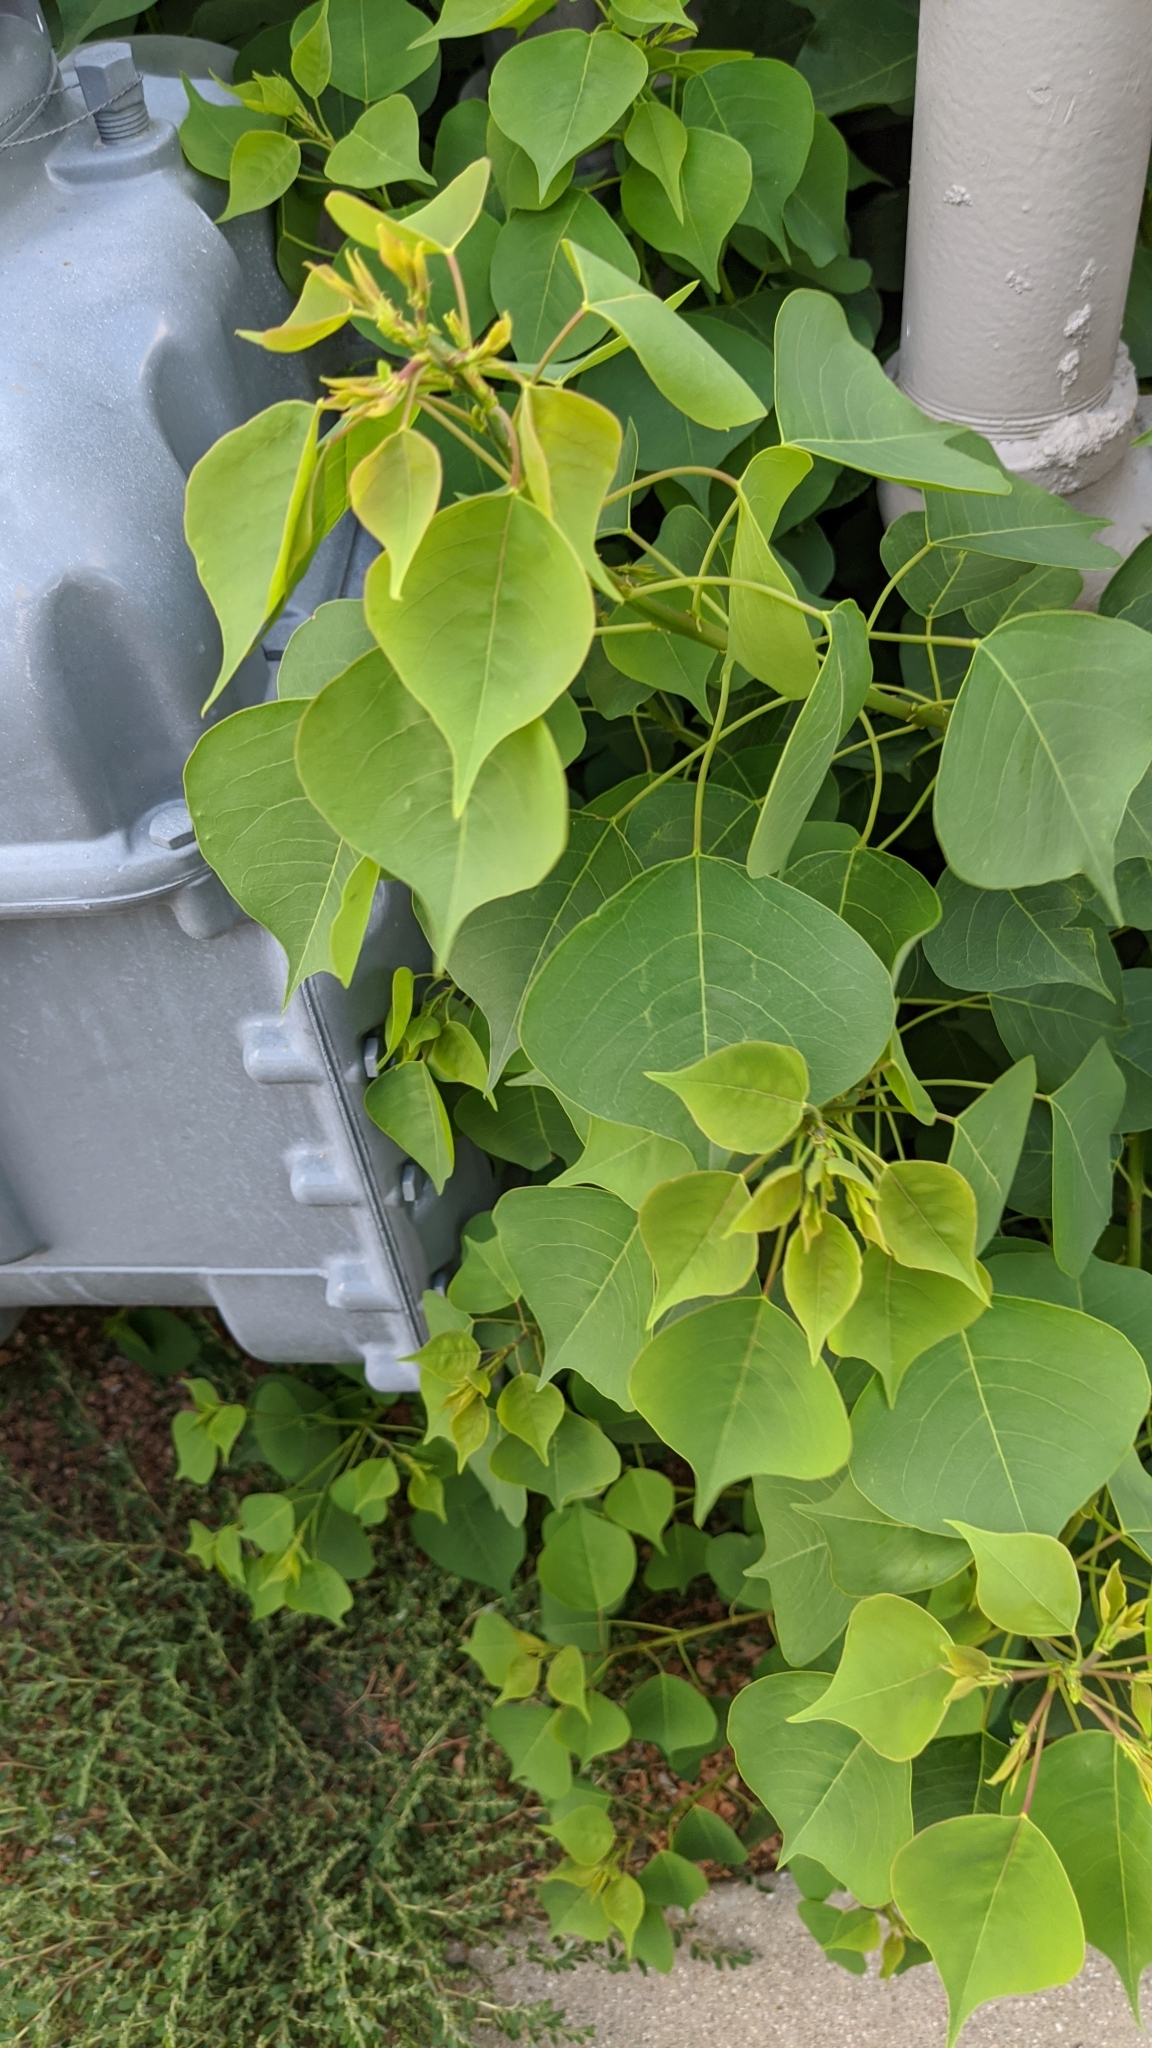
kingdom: Plantae
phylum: Tracheophyta
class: Magnoliopsida
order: Malpighiales
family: Euphorbiaceae
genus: Triadica
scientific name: Triadica sebifera
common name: Chinese tallow
